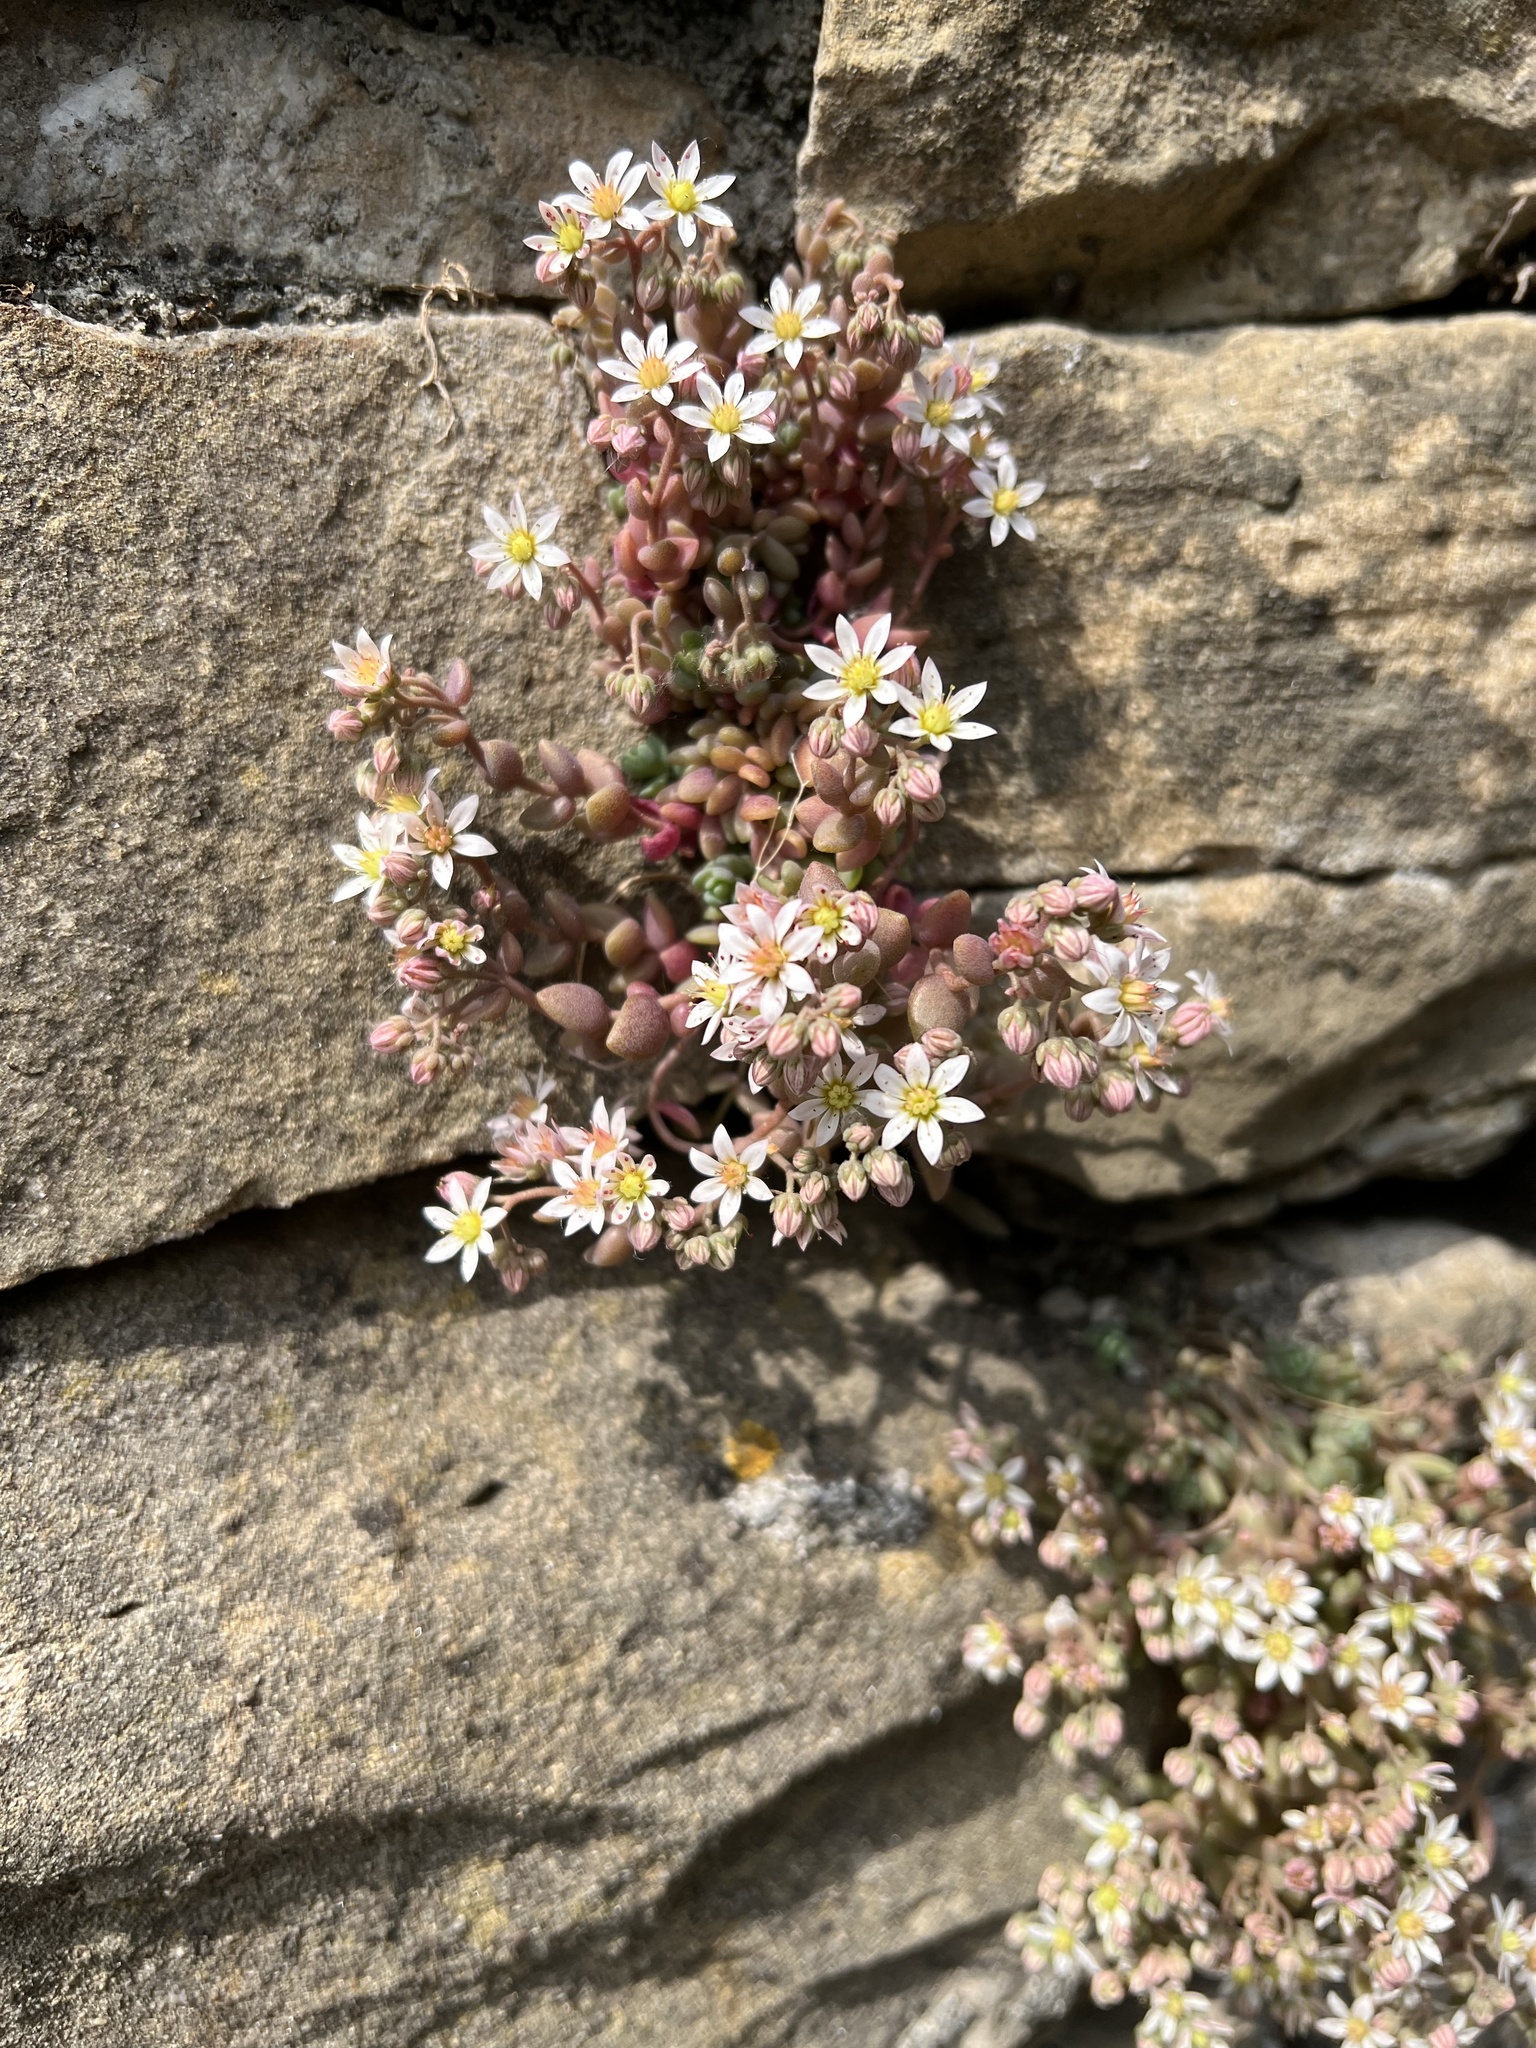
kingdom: Plantae
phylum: Tracheophyta
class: Magnoliopsida
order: Saxifragales
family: Crassulaceae
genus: Sedum
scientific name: Sedum dasyphyllum
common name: Thick-leaf stonecrop
